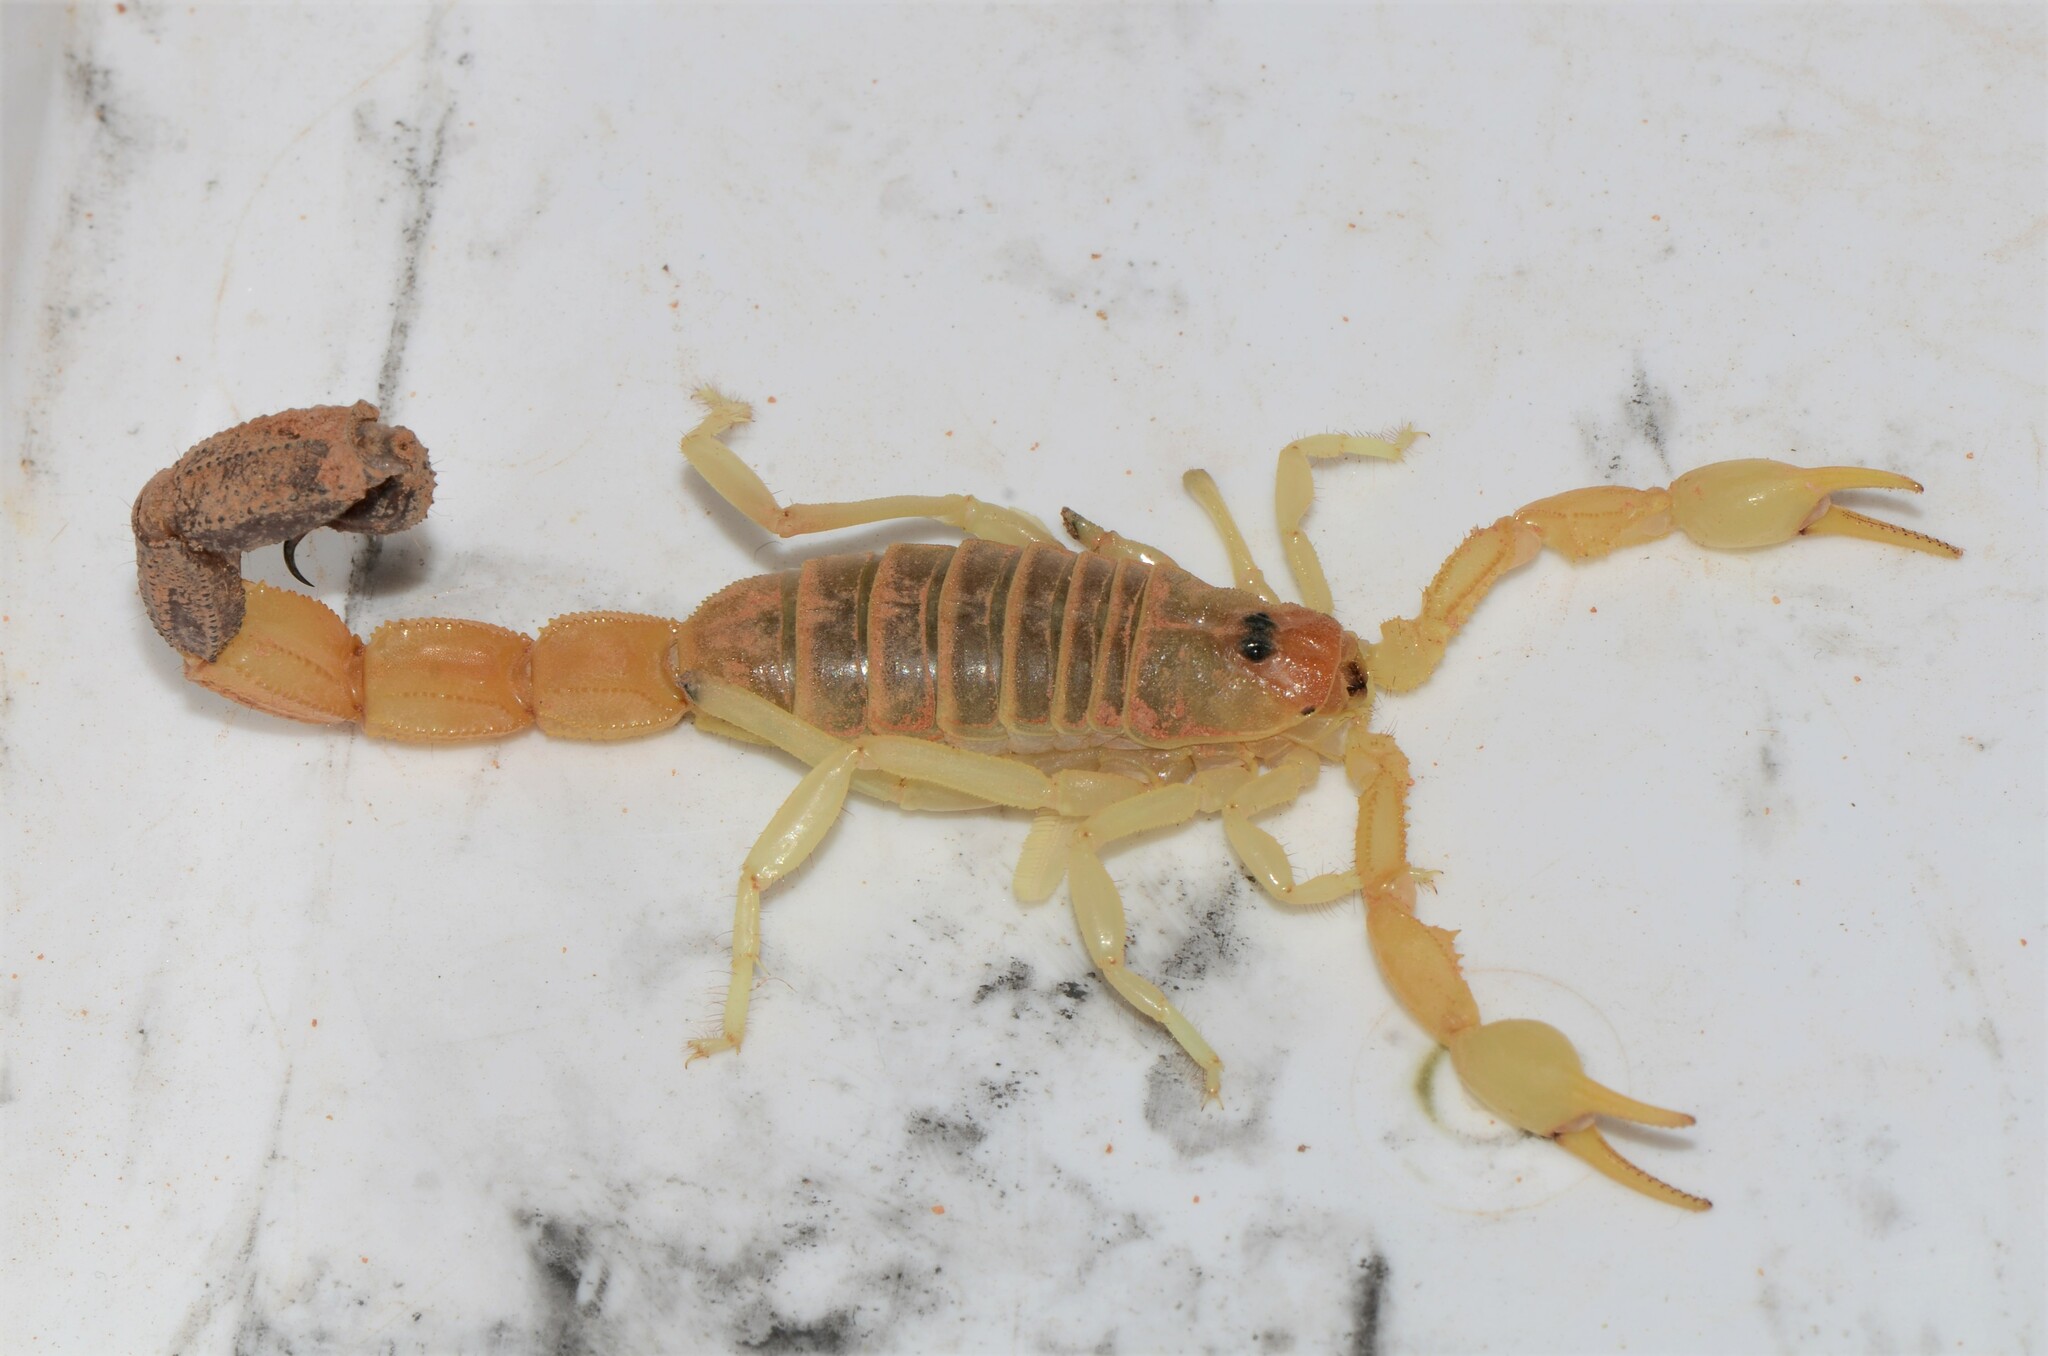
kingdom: Animalia
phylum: Arthropoda
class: Arachnida
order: Scorpiones
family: Buthidae
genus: Parabuthus
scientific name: Parabuthus laevifrons
